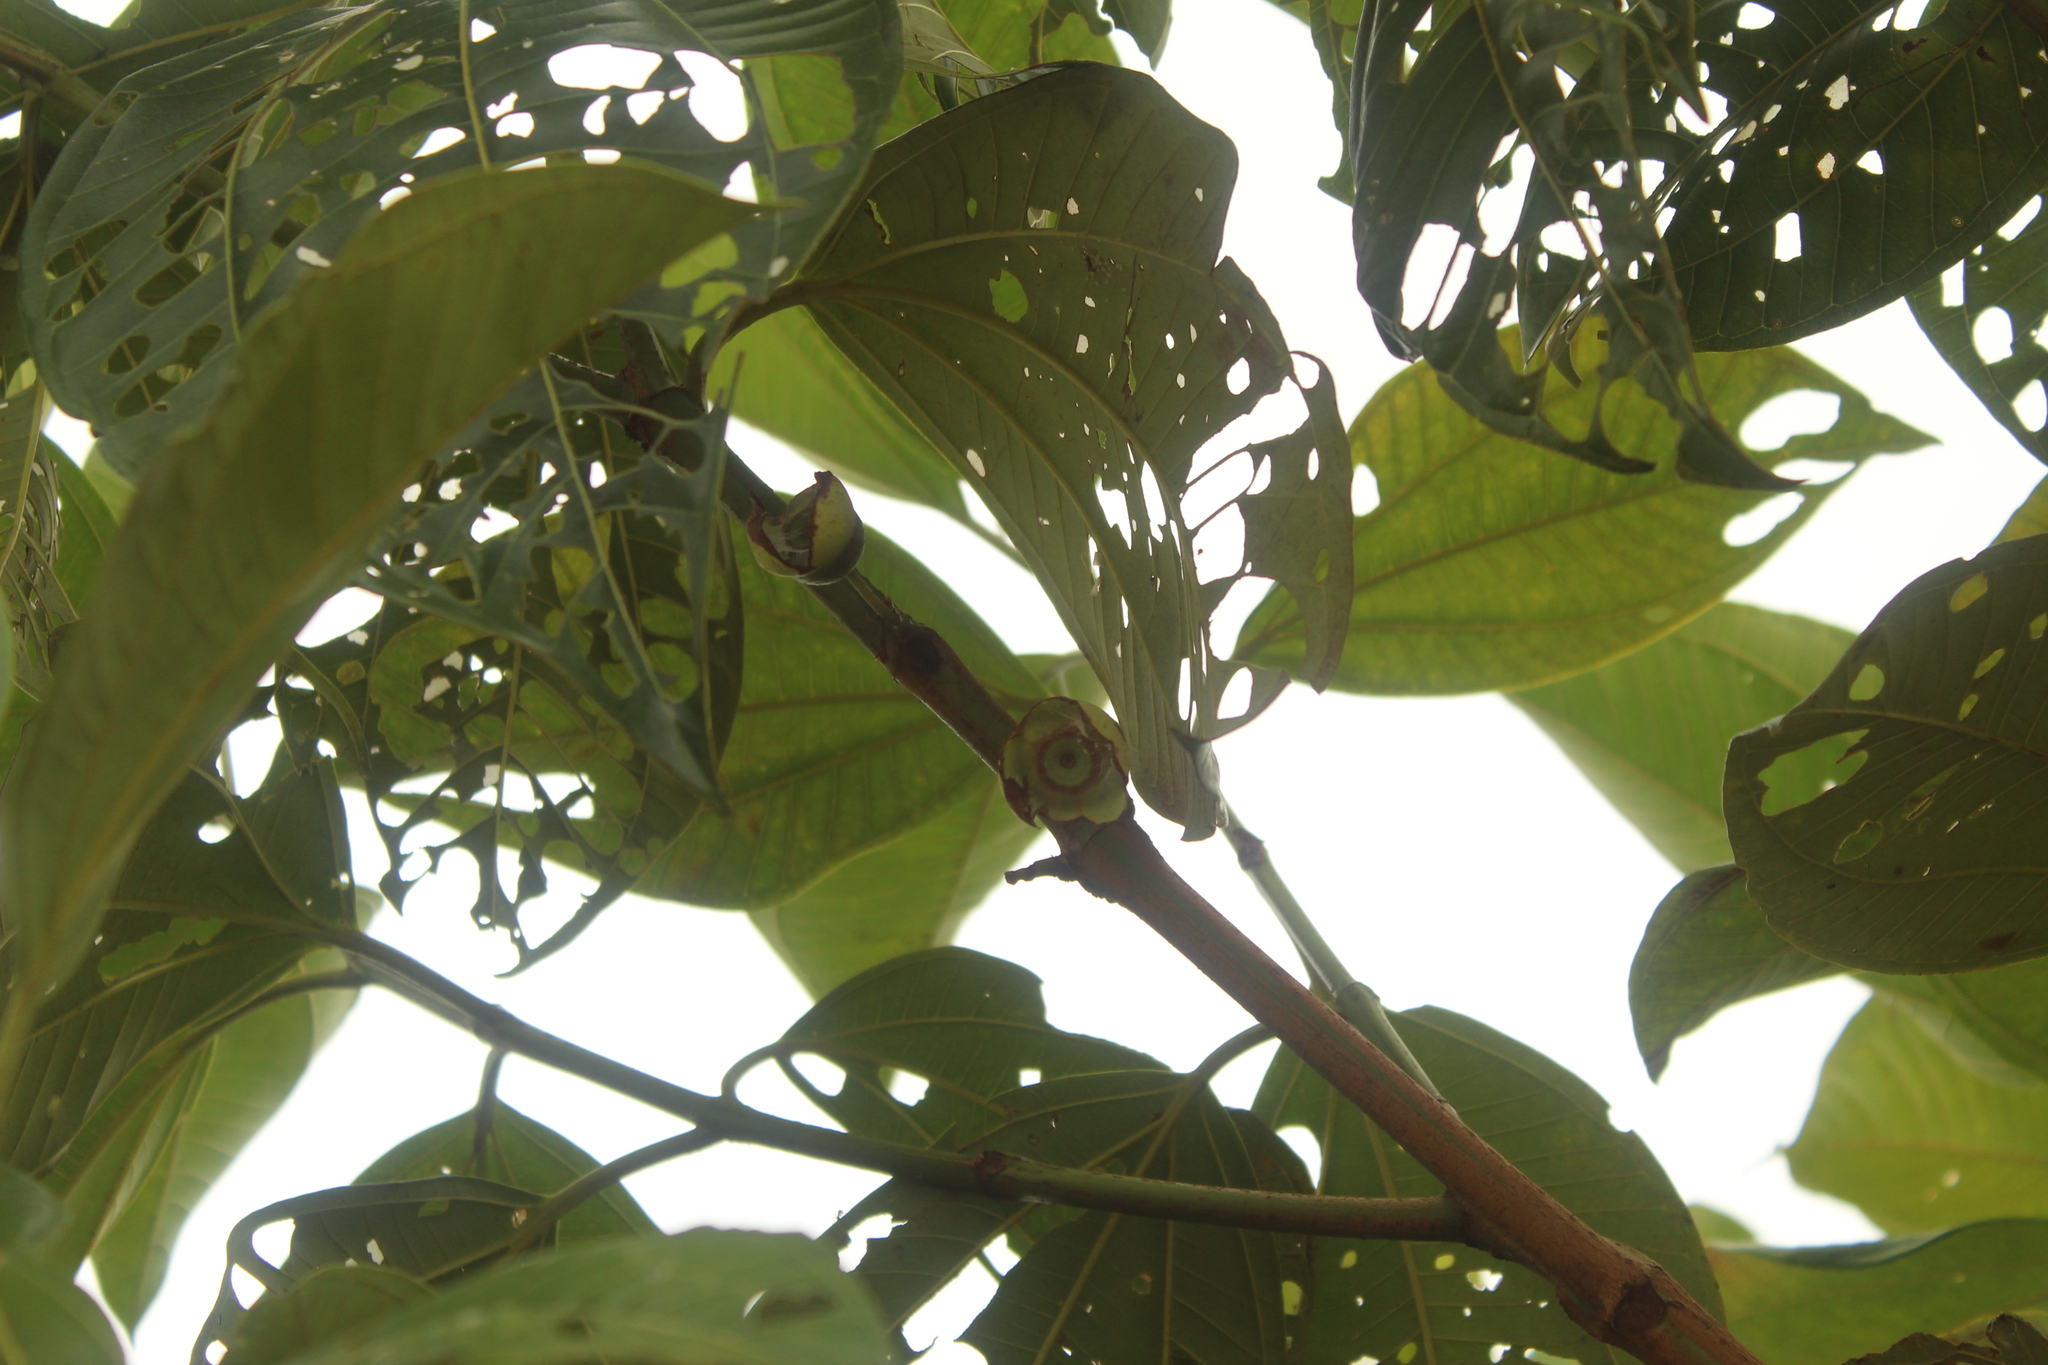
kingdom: Plantae
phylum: Tracheophyta
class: Magnoliopsida
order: Myrtales
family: Melastomataceae
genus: Bellucia
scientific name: Bellucia grossularioides
